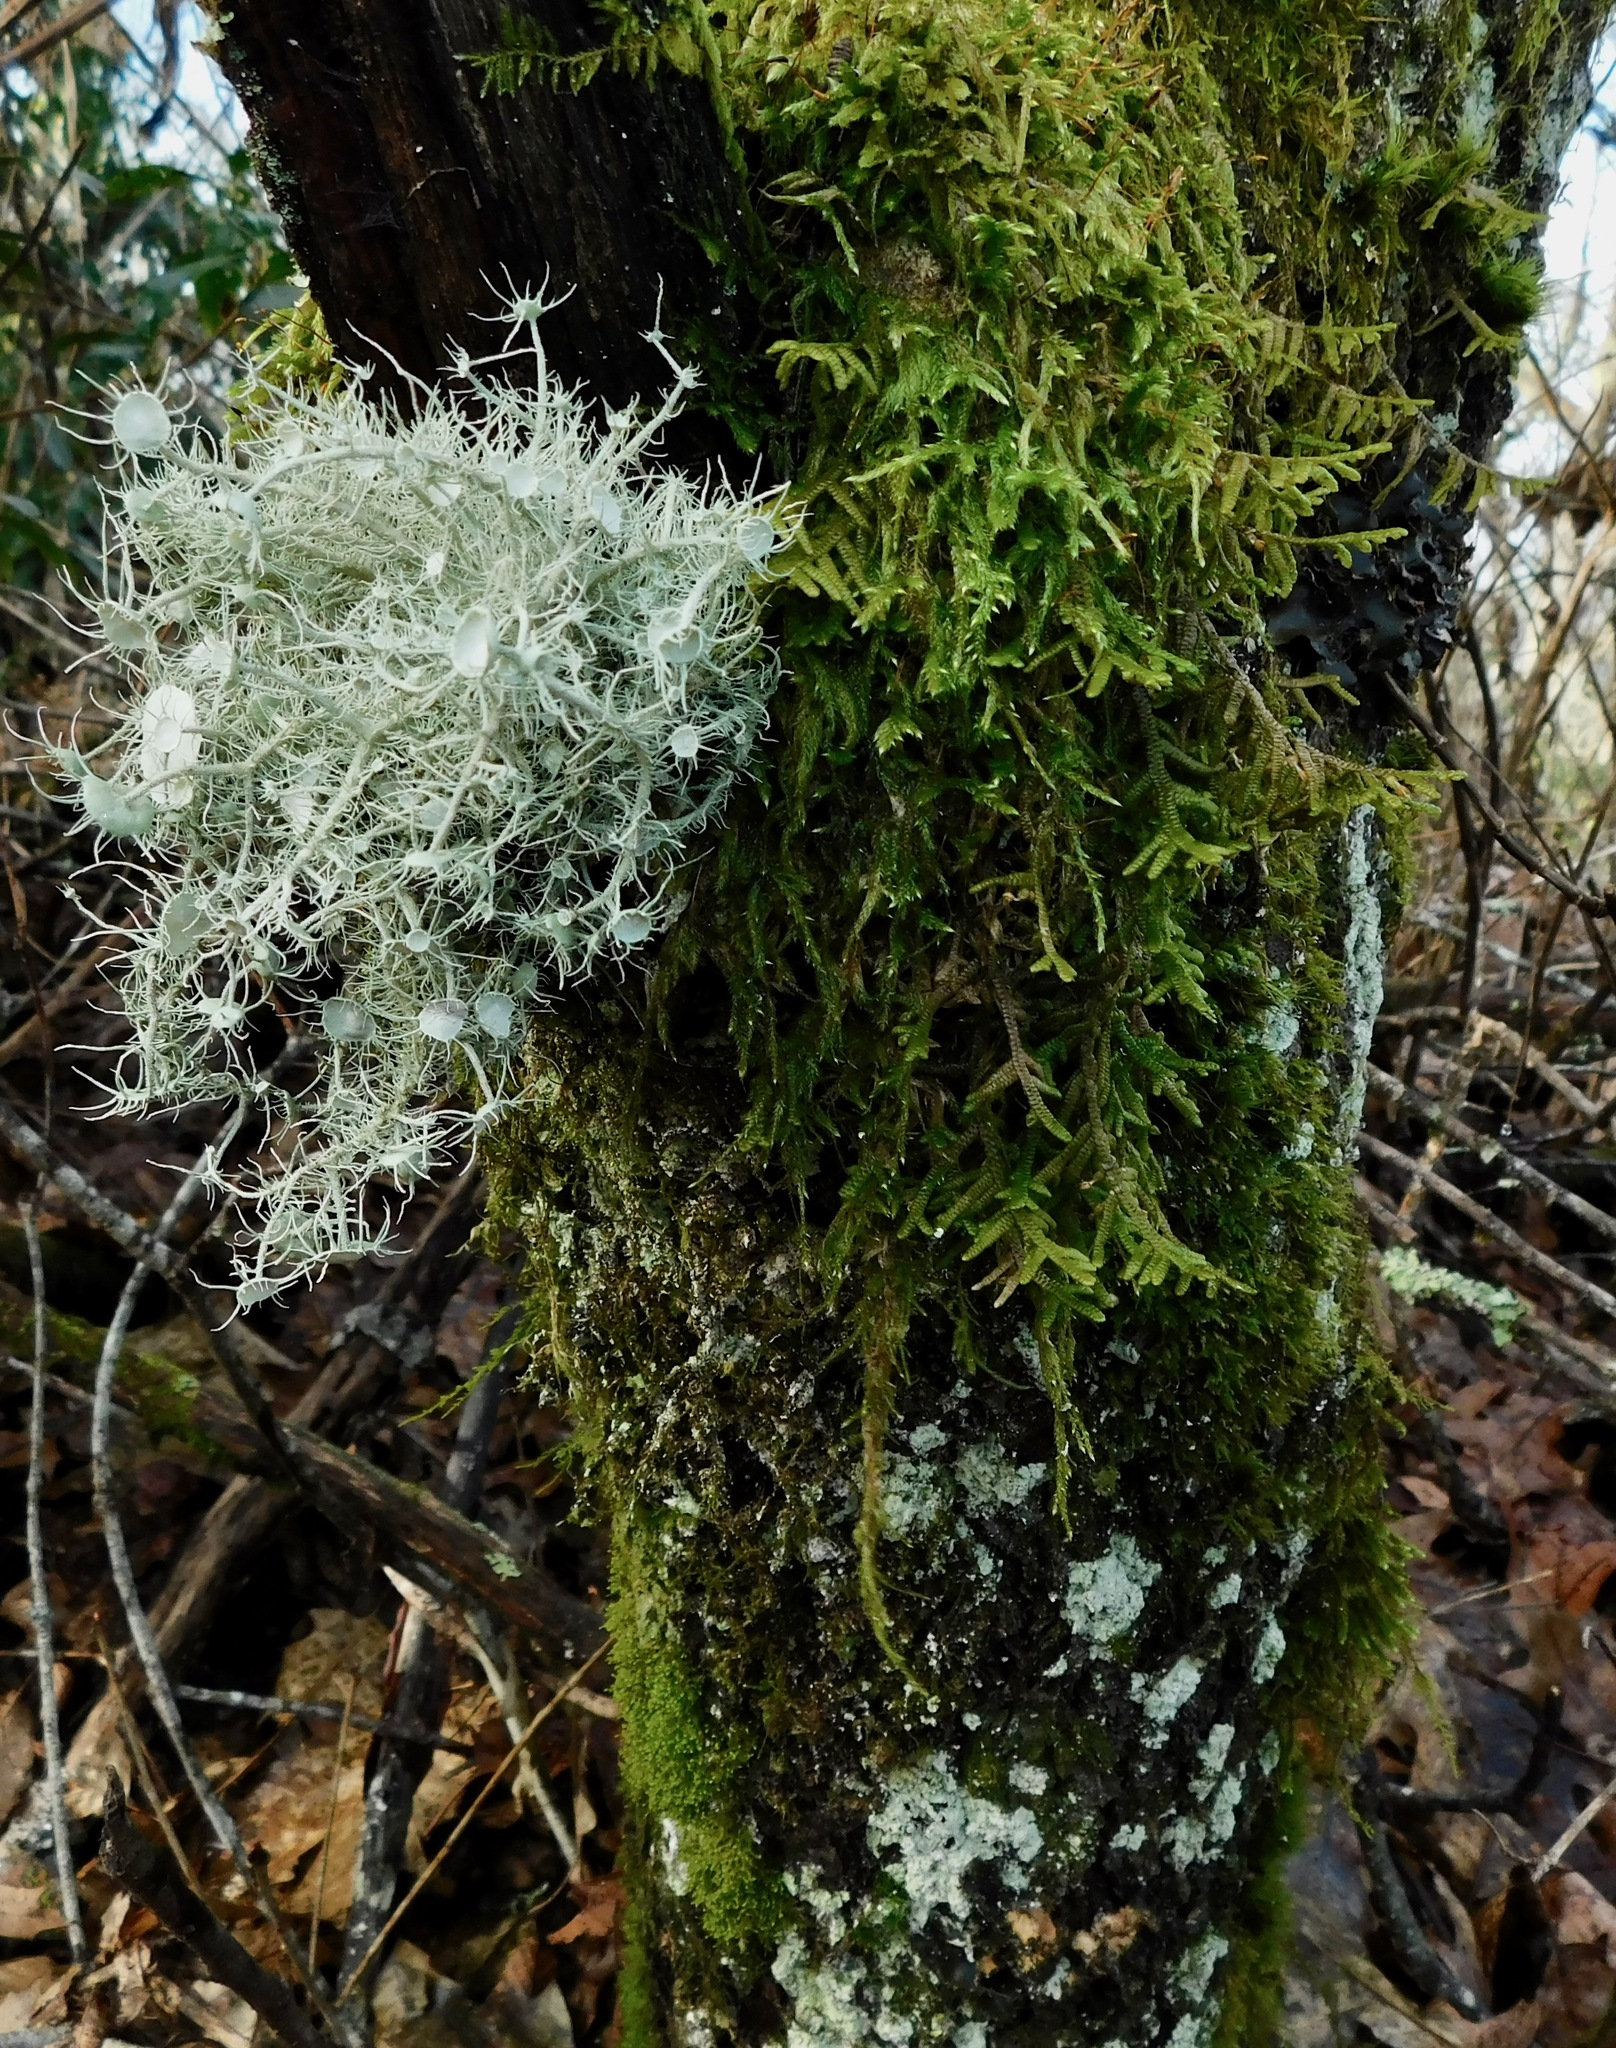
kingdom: Plantae
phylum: Marchantiophyta
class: Jungermanniopsida
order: Porellales
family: Porellaceae
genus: Porella
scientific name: Porella platyphylla
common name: Wall scalewort
